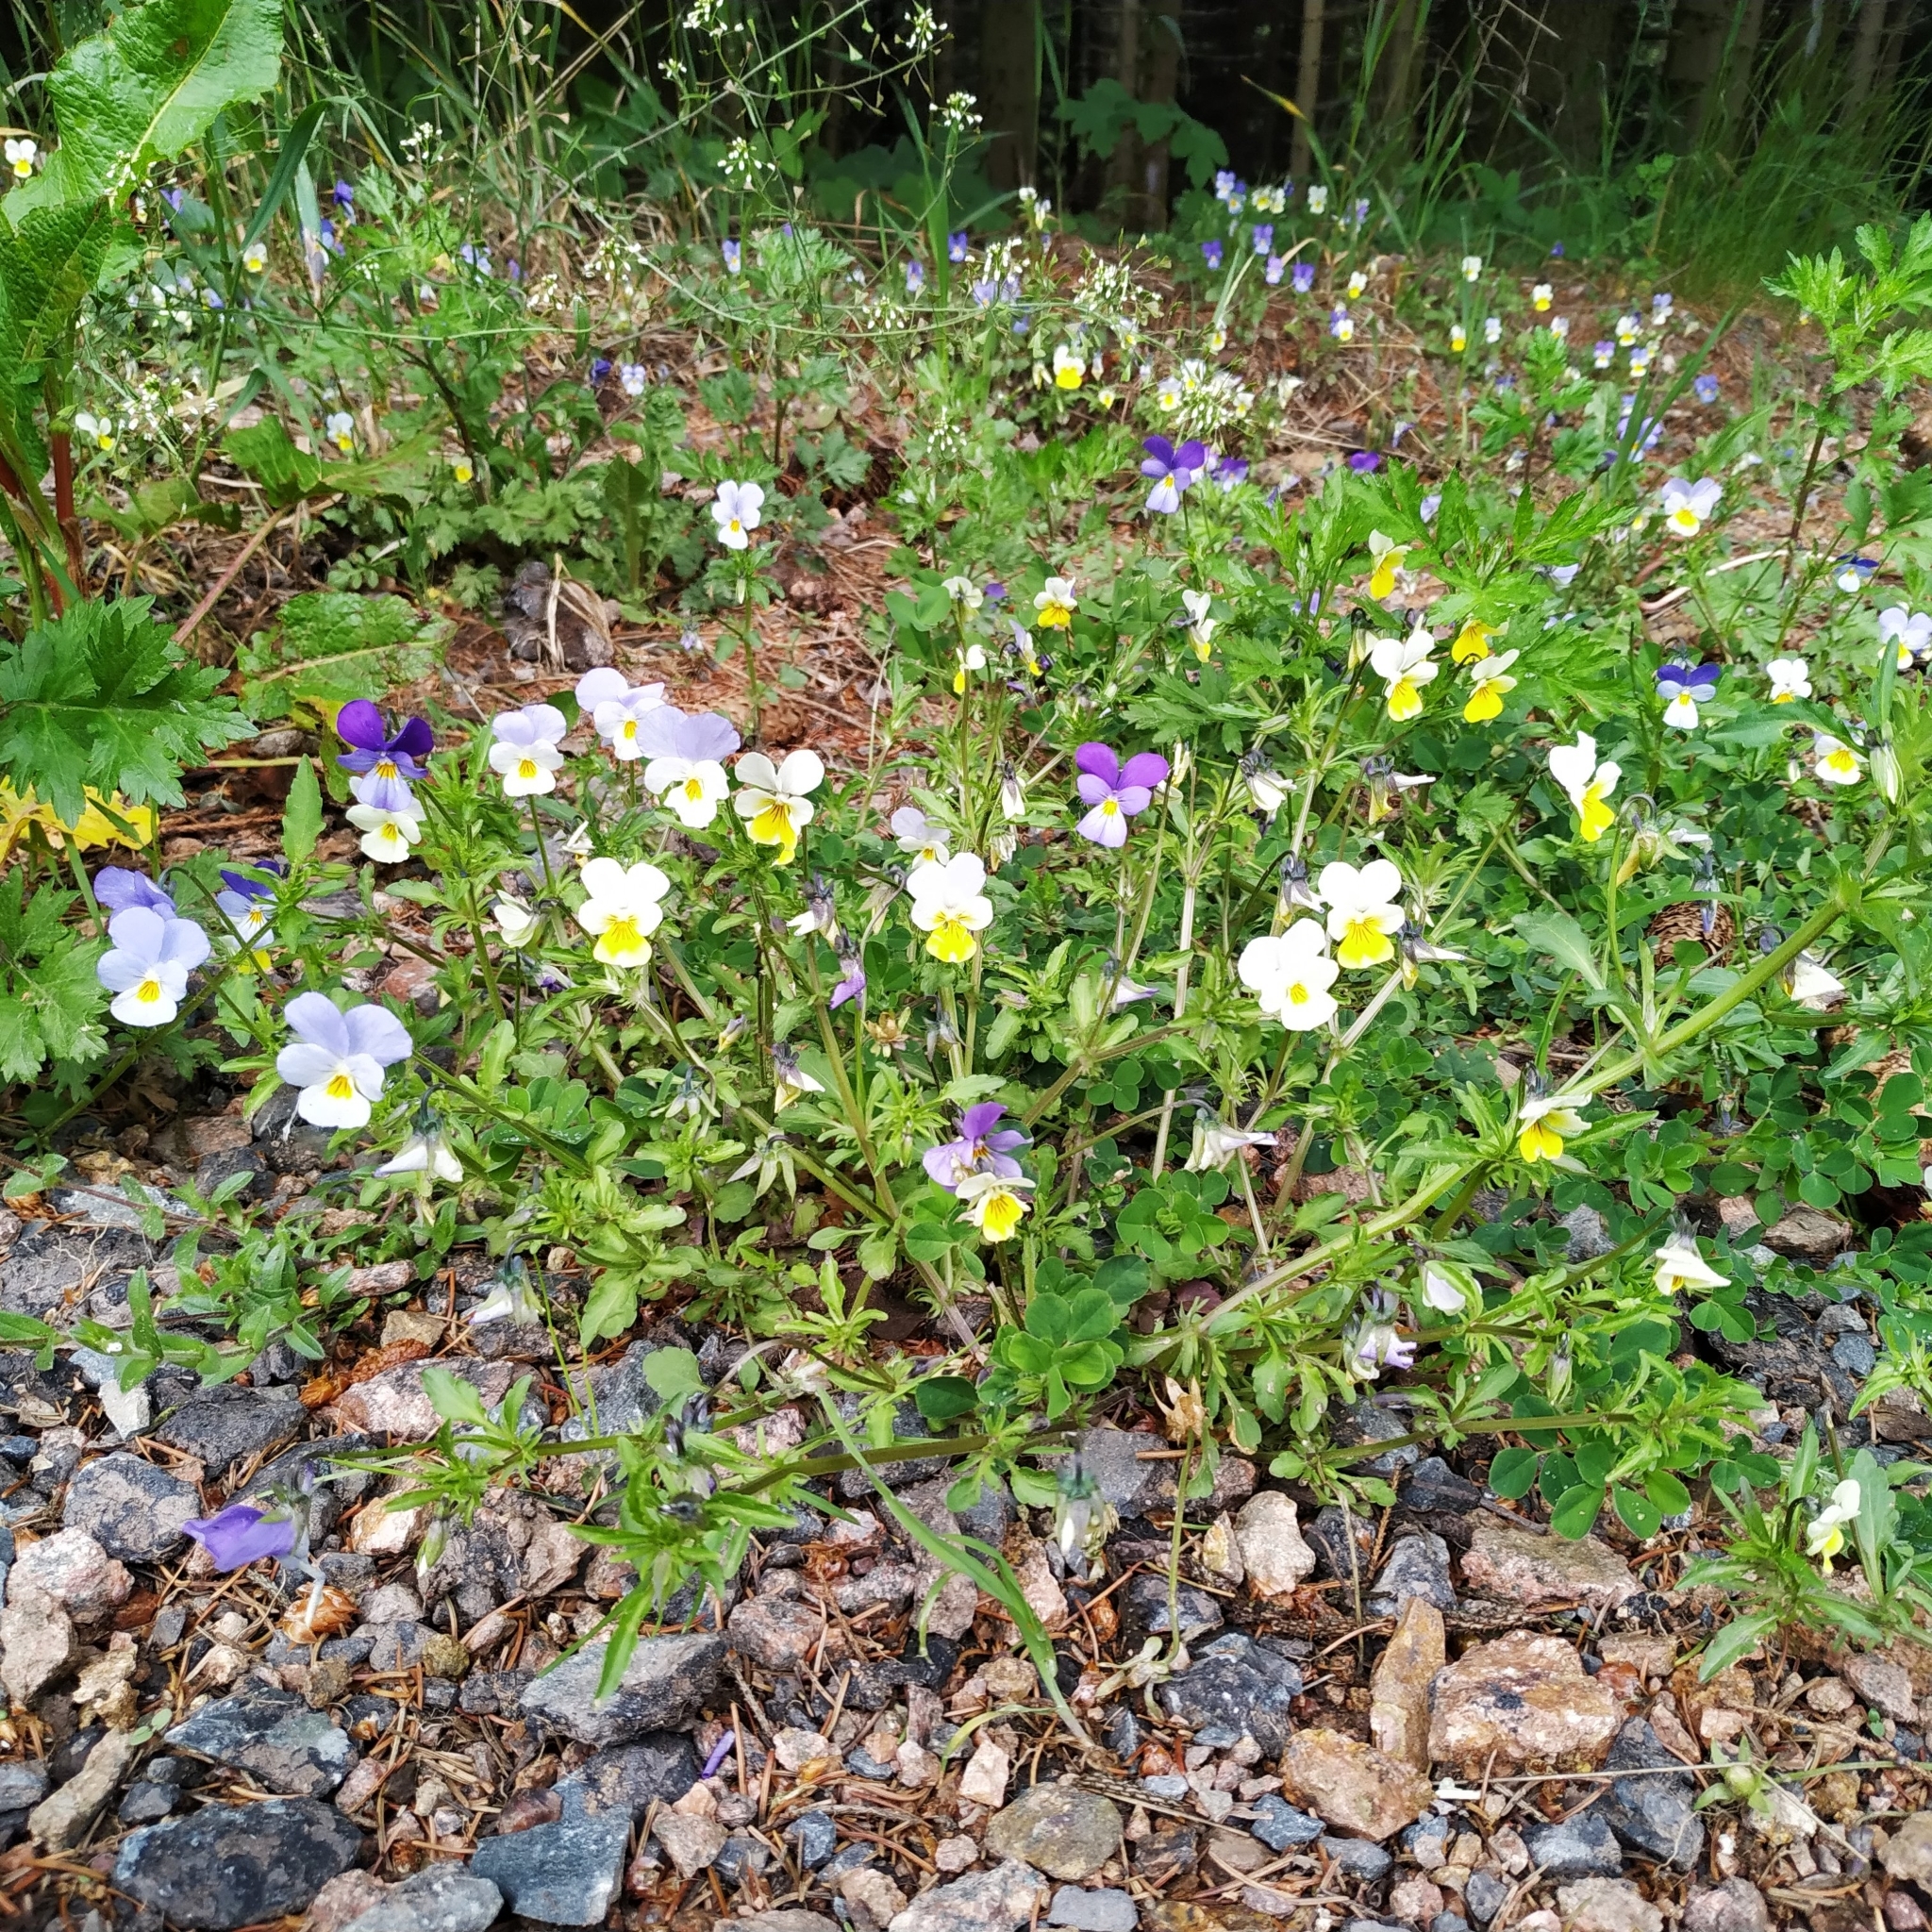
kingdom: Plantae
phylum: Tracheophyta
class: Magnoliopsida
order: Malpighiales
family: Violaceae
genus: Viola
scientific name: Viola tricolor
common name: Pansy
